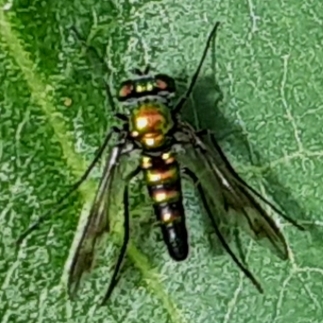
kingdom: Animalia
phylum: Arthropoda
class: Insecta
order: Diptera
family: Dolichopodidae
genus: Condylostylus
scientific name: Condylostylus patibulatus
